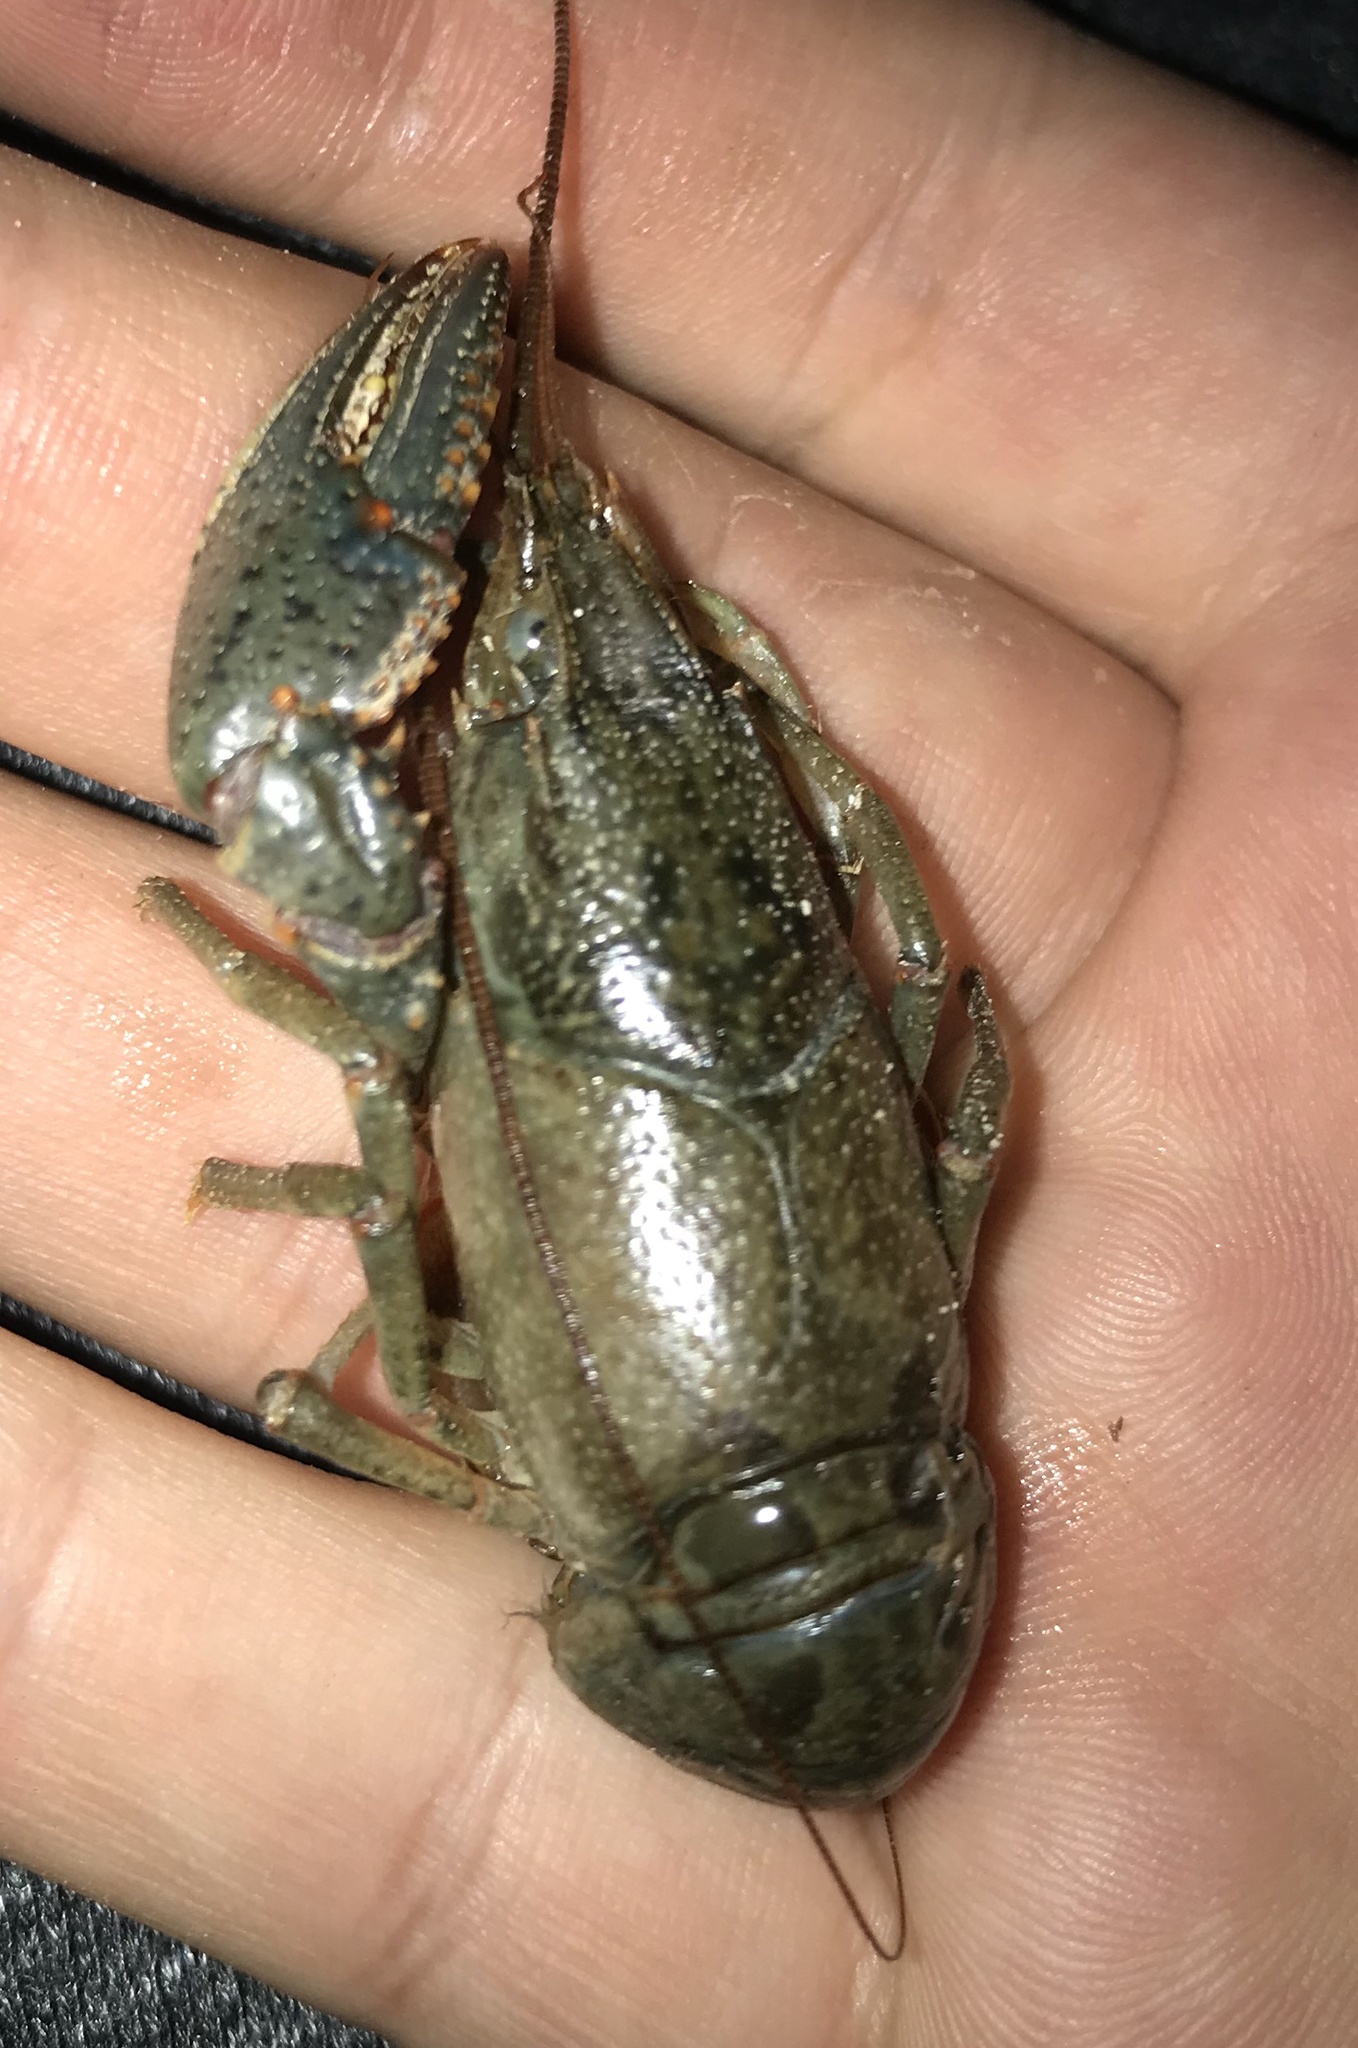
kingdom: Animalia
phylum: Arthropoda
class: Malacostraca
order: Decapoda
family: Cambaridae
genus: Faxonius
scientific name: Faxonius virilis
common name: Virile crayfish
